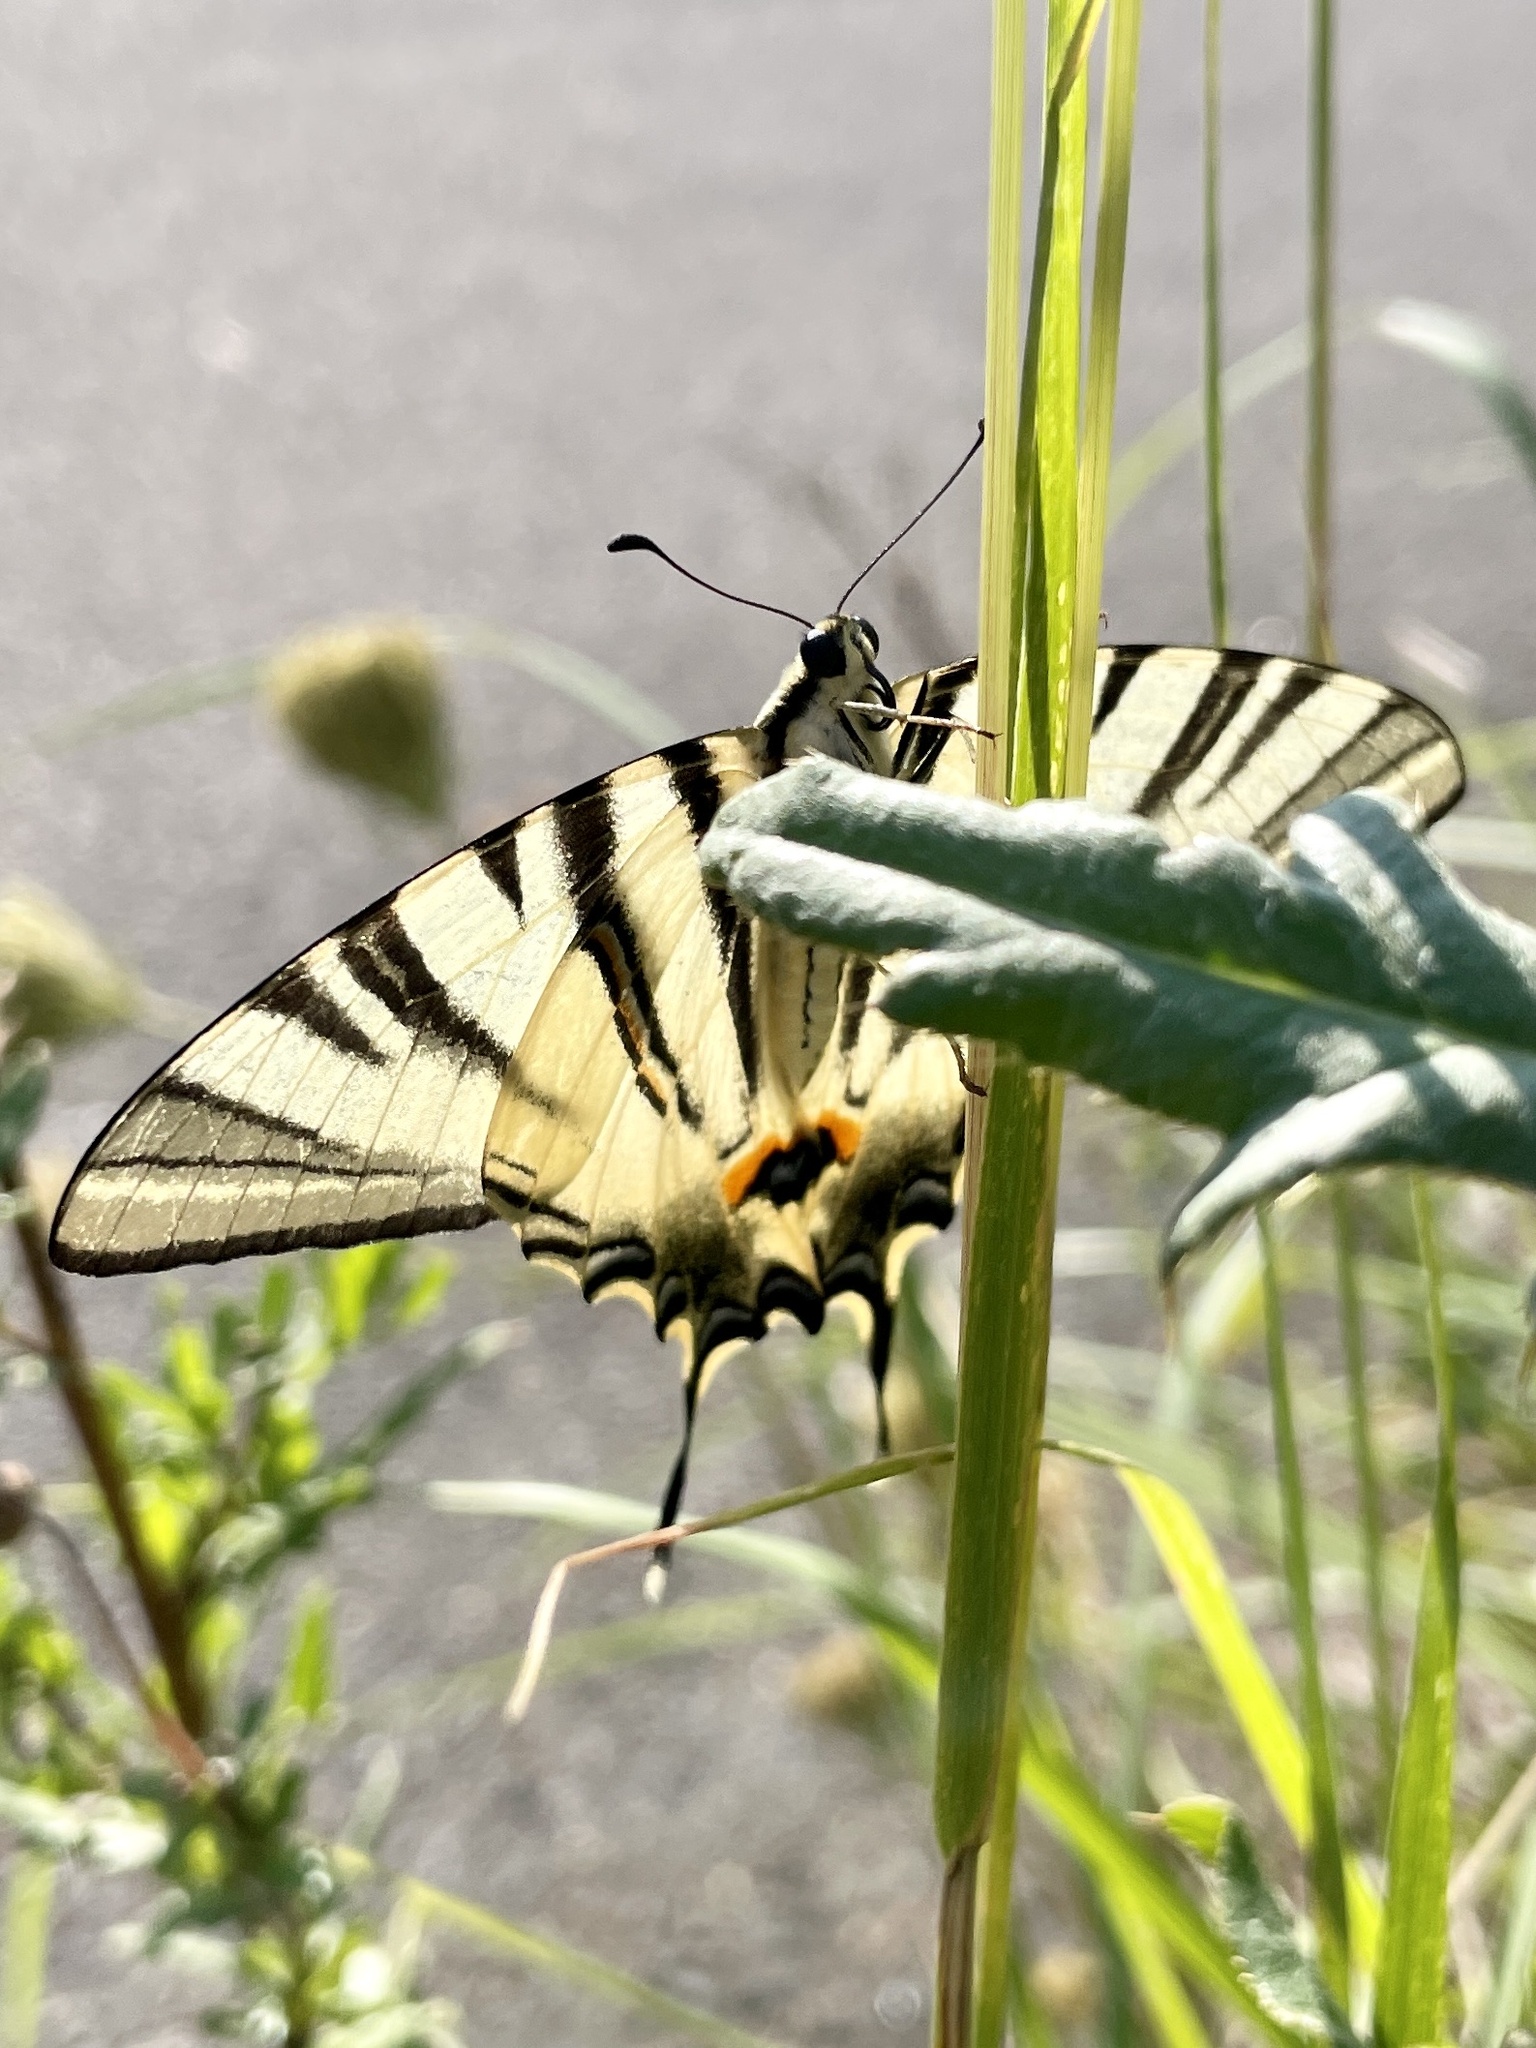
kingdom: Animalia
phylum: Arthropoda
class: Insecta
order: Lepidoptera
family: Papilionidae
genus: Iphiclides
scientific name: Iphiclides podalirius
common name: Scarce swallowtail
